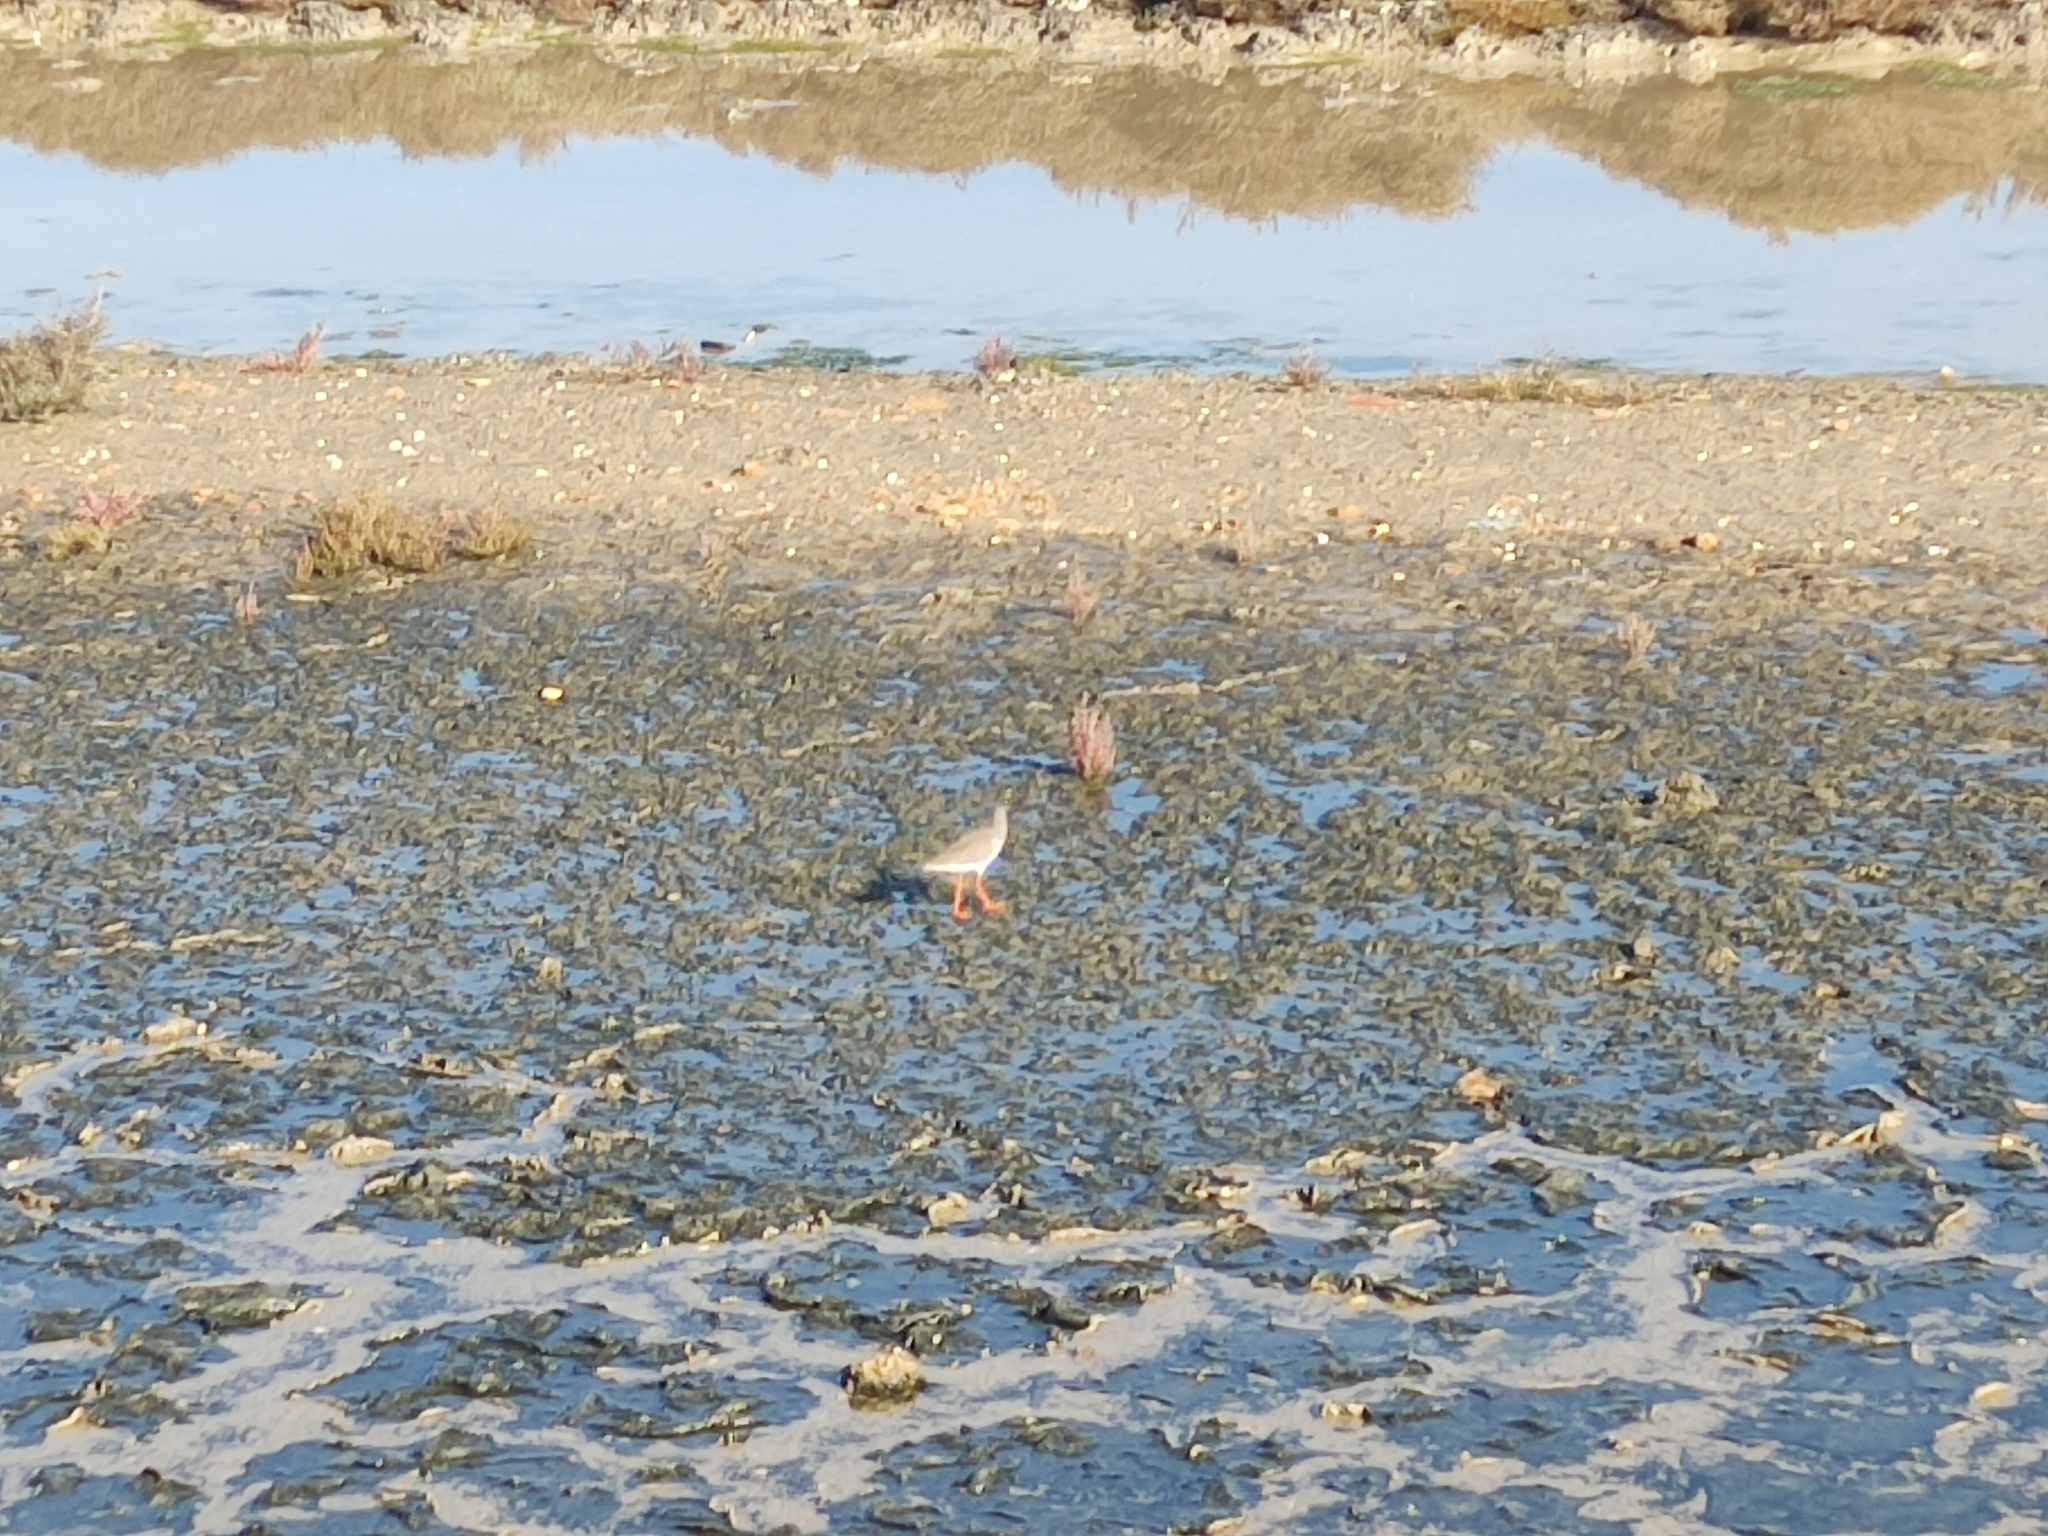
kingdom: Animalia
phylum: Chordata
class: Aves
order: Charadriiformes
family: Scolopacidae
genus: Tringa
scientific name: Tringa totanus
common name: Common redshank
